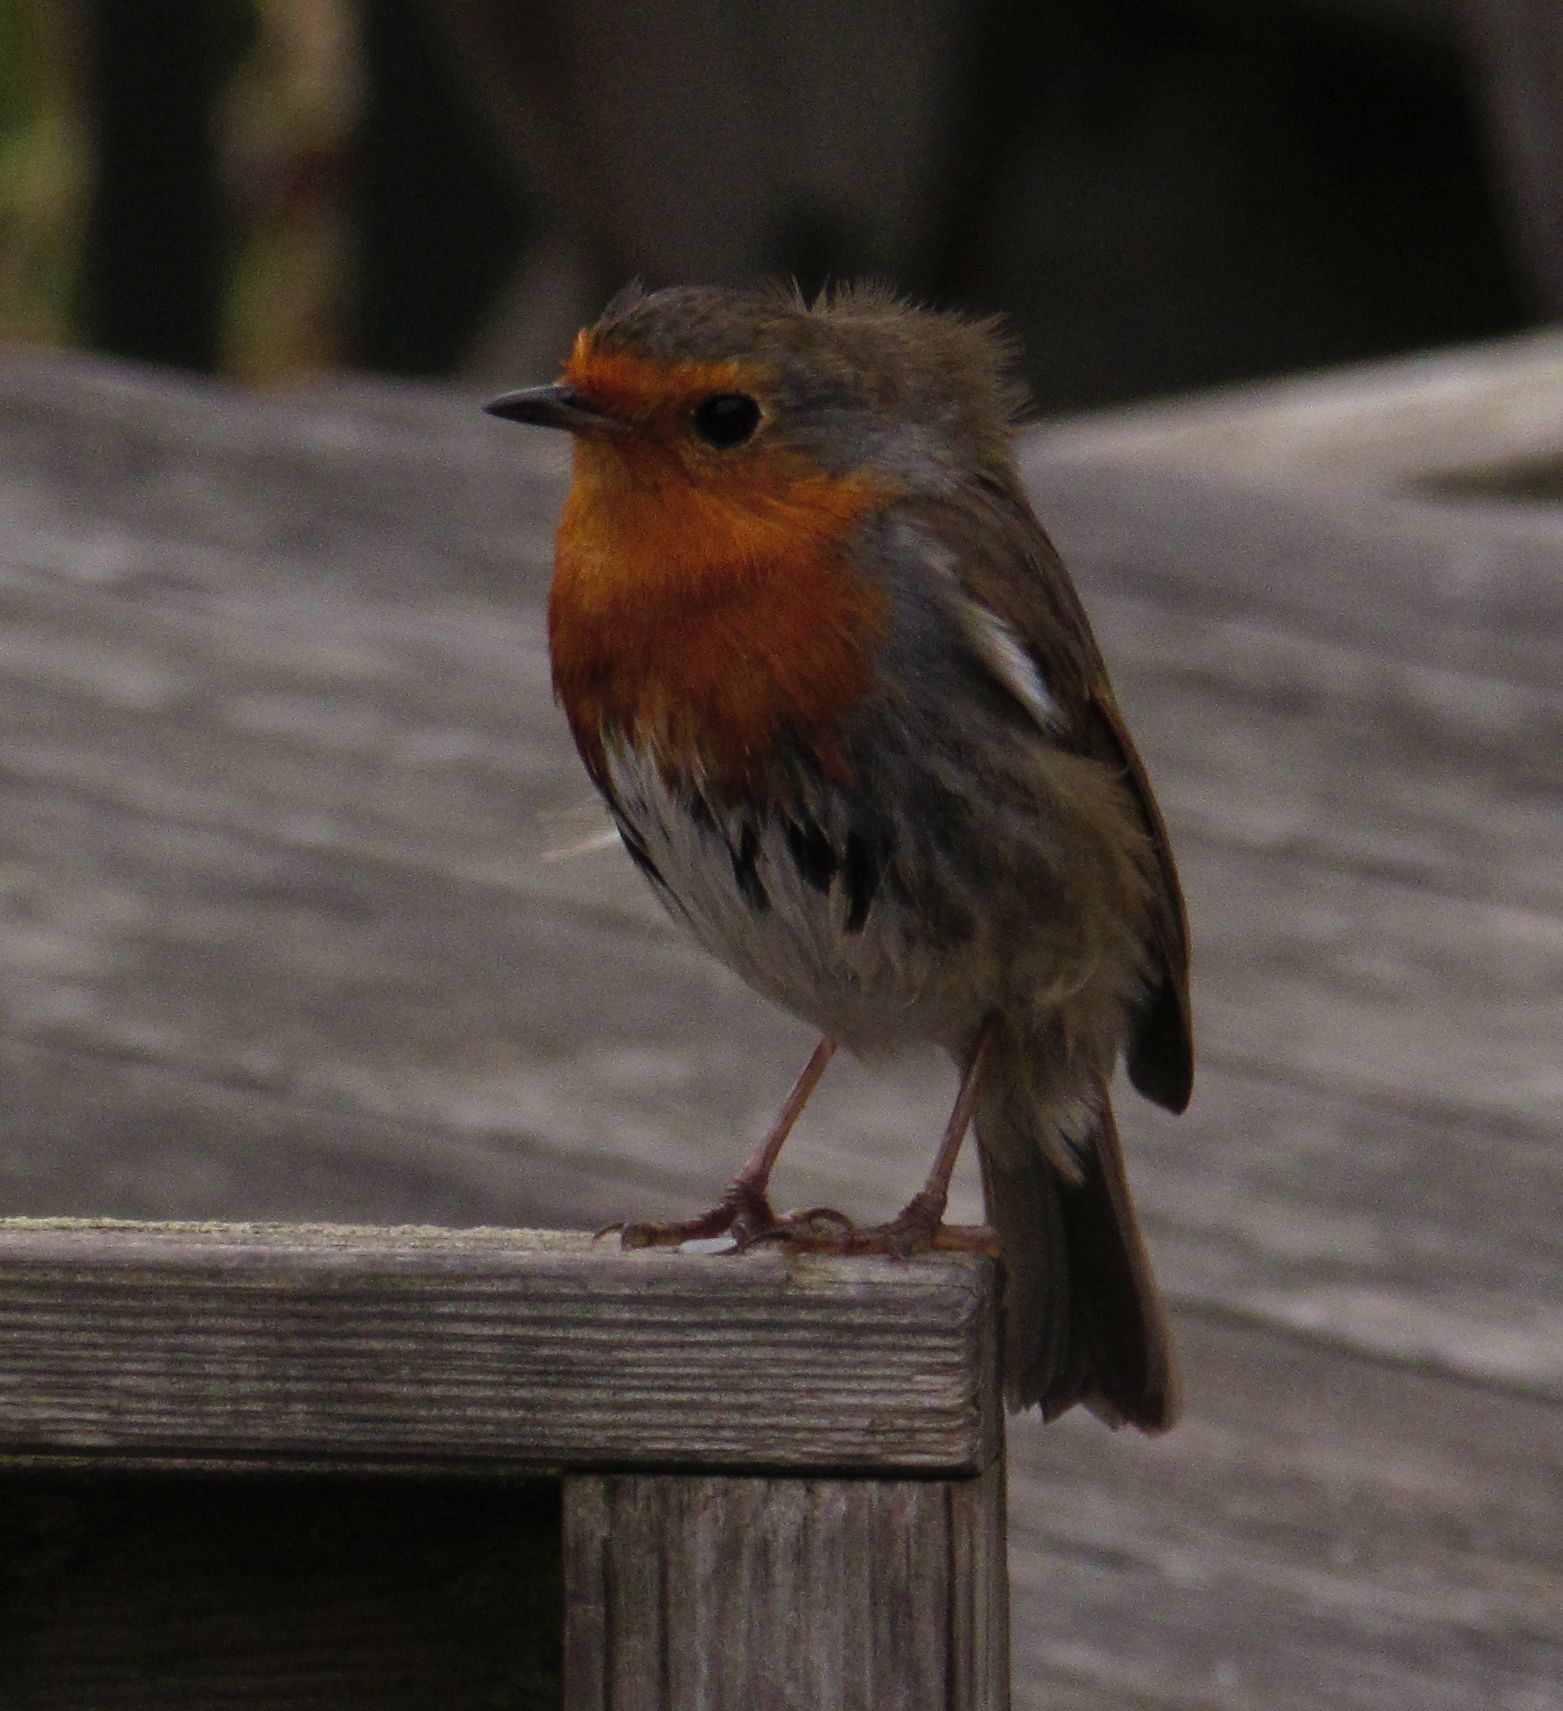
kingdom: Animalia
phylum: Chordata
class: Aves
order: Passeriformes
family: Muscicapidae
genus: Erithacus
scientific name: Erithacus rubecula
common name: European robin
